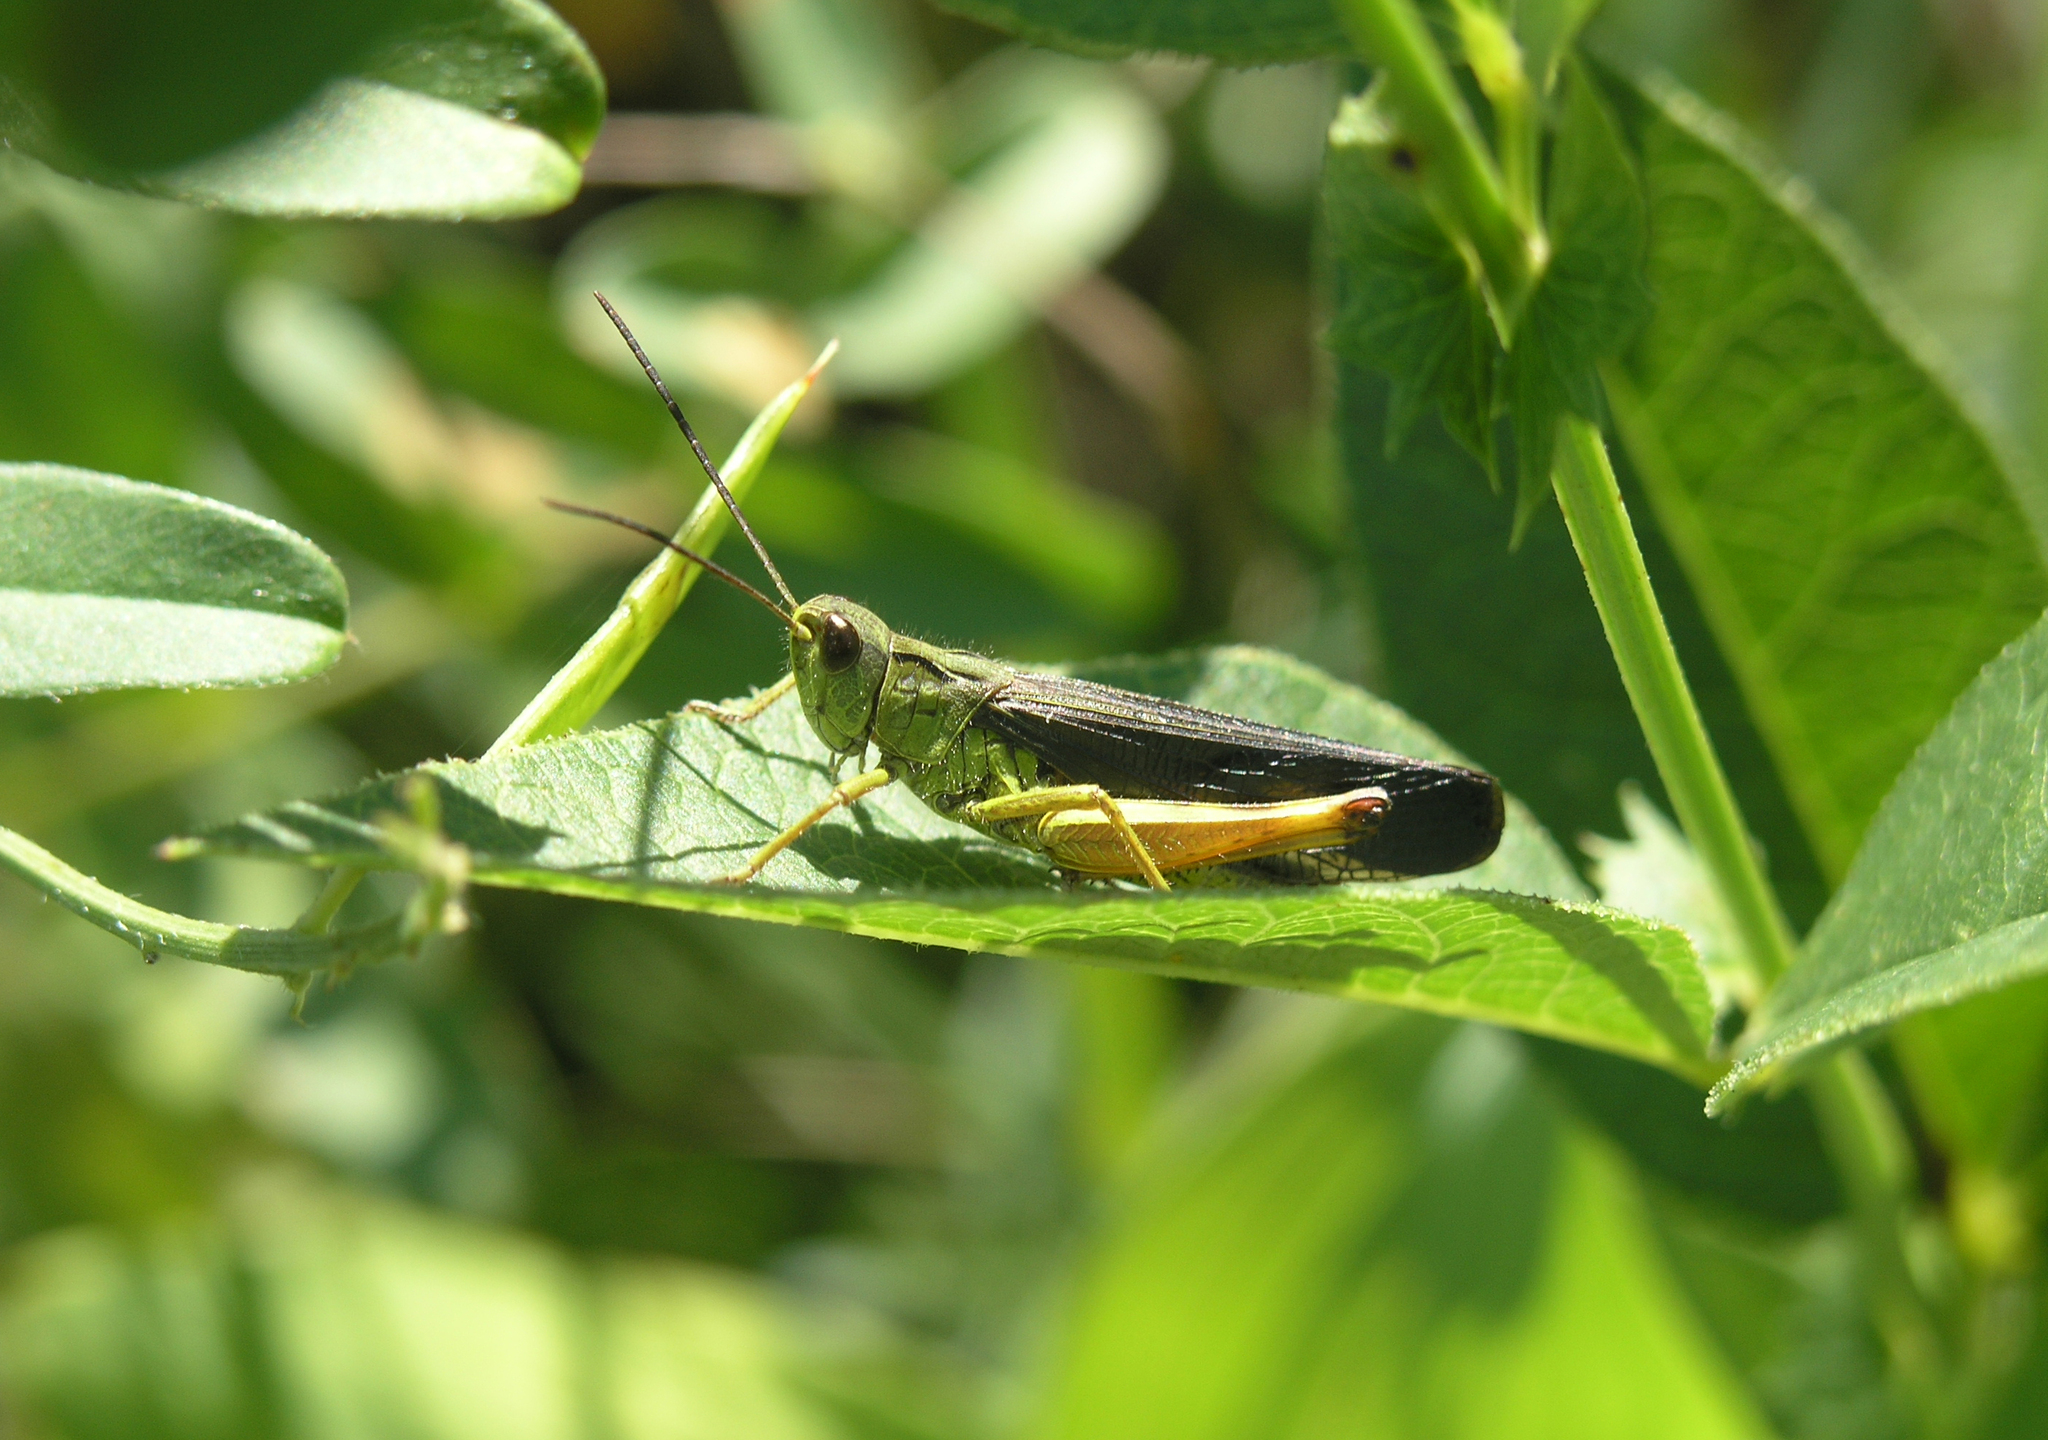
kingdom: Animalia
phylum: Arthropoda
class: Insecta
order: Orthoptera
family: Acrididae
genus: Megaulacobothrus
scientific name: Megaulacobothrus aethalinus
